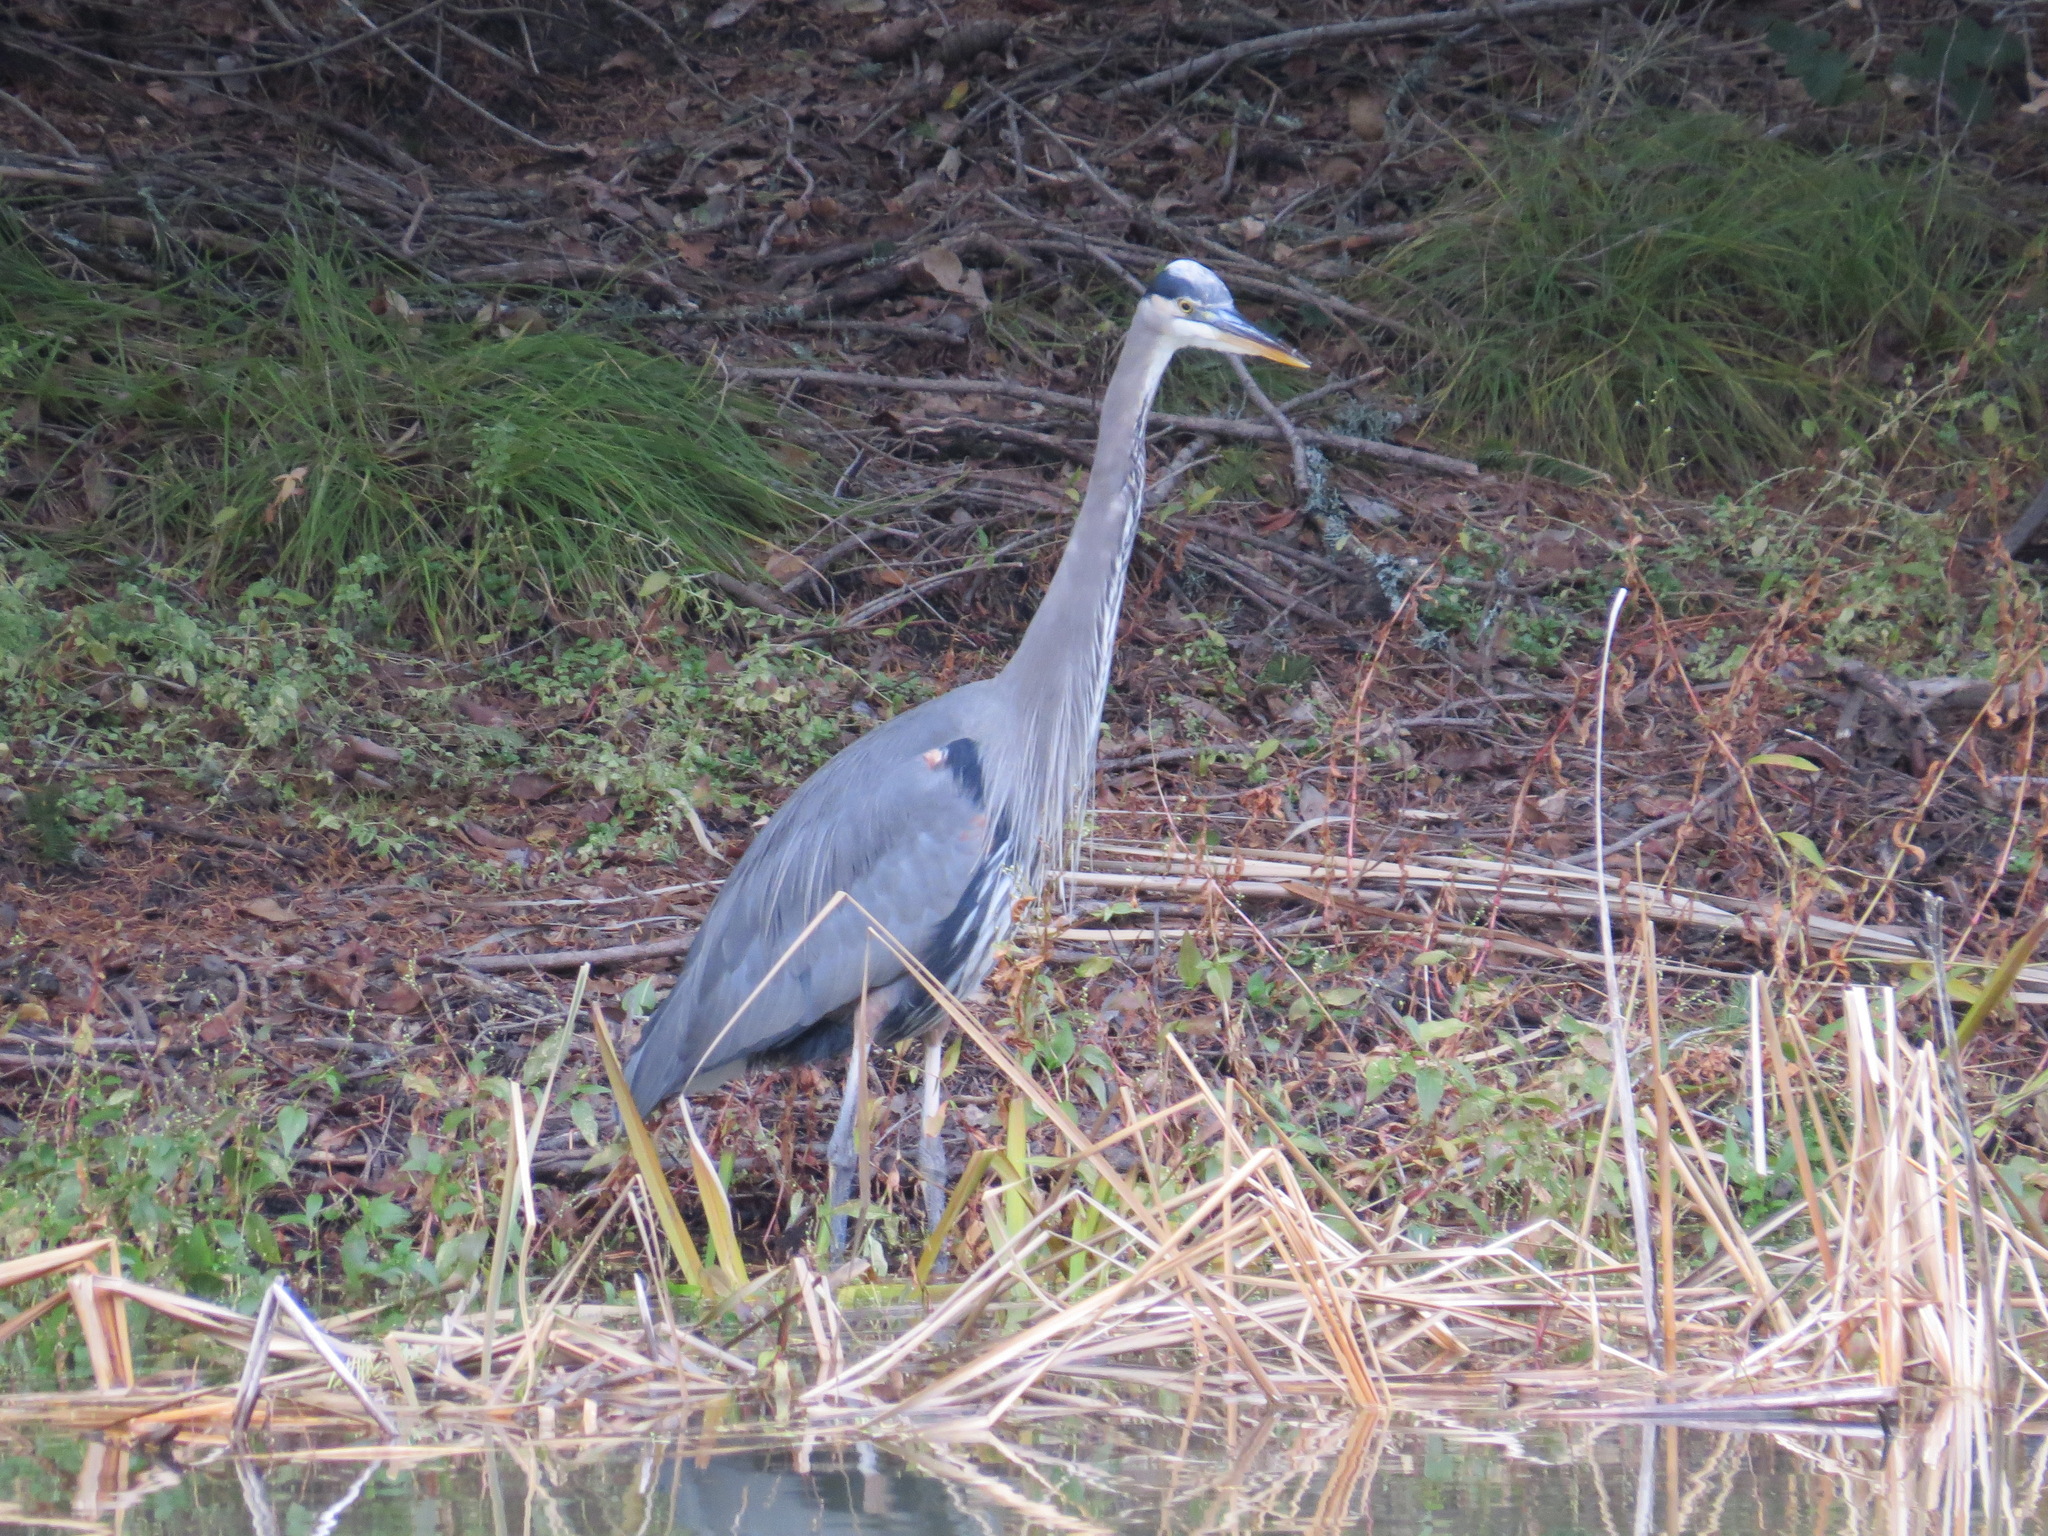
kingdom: Animalia
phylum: Chordata
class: Aves
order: Pelecaniformes
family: Ardeidae
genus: Ardea
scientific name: Ardea herodias
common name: Great blue heron
